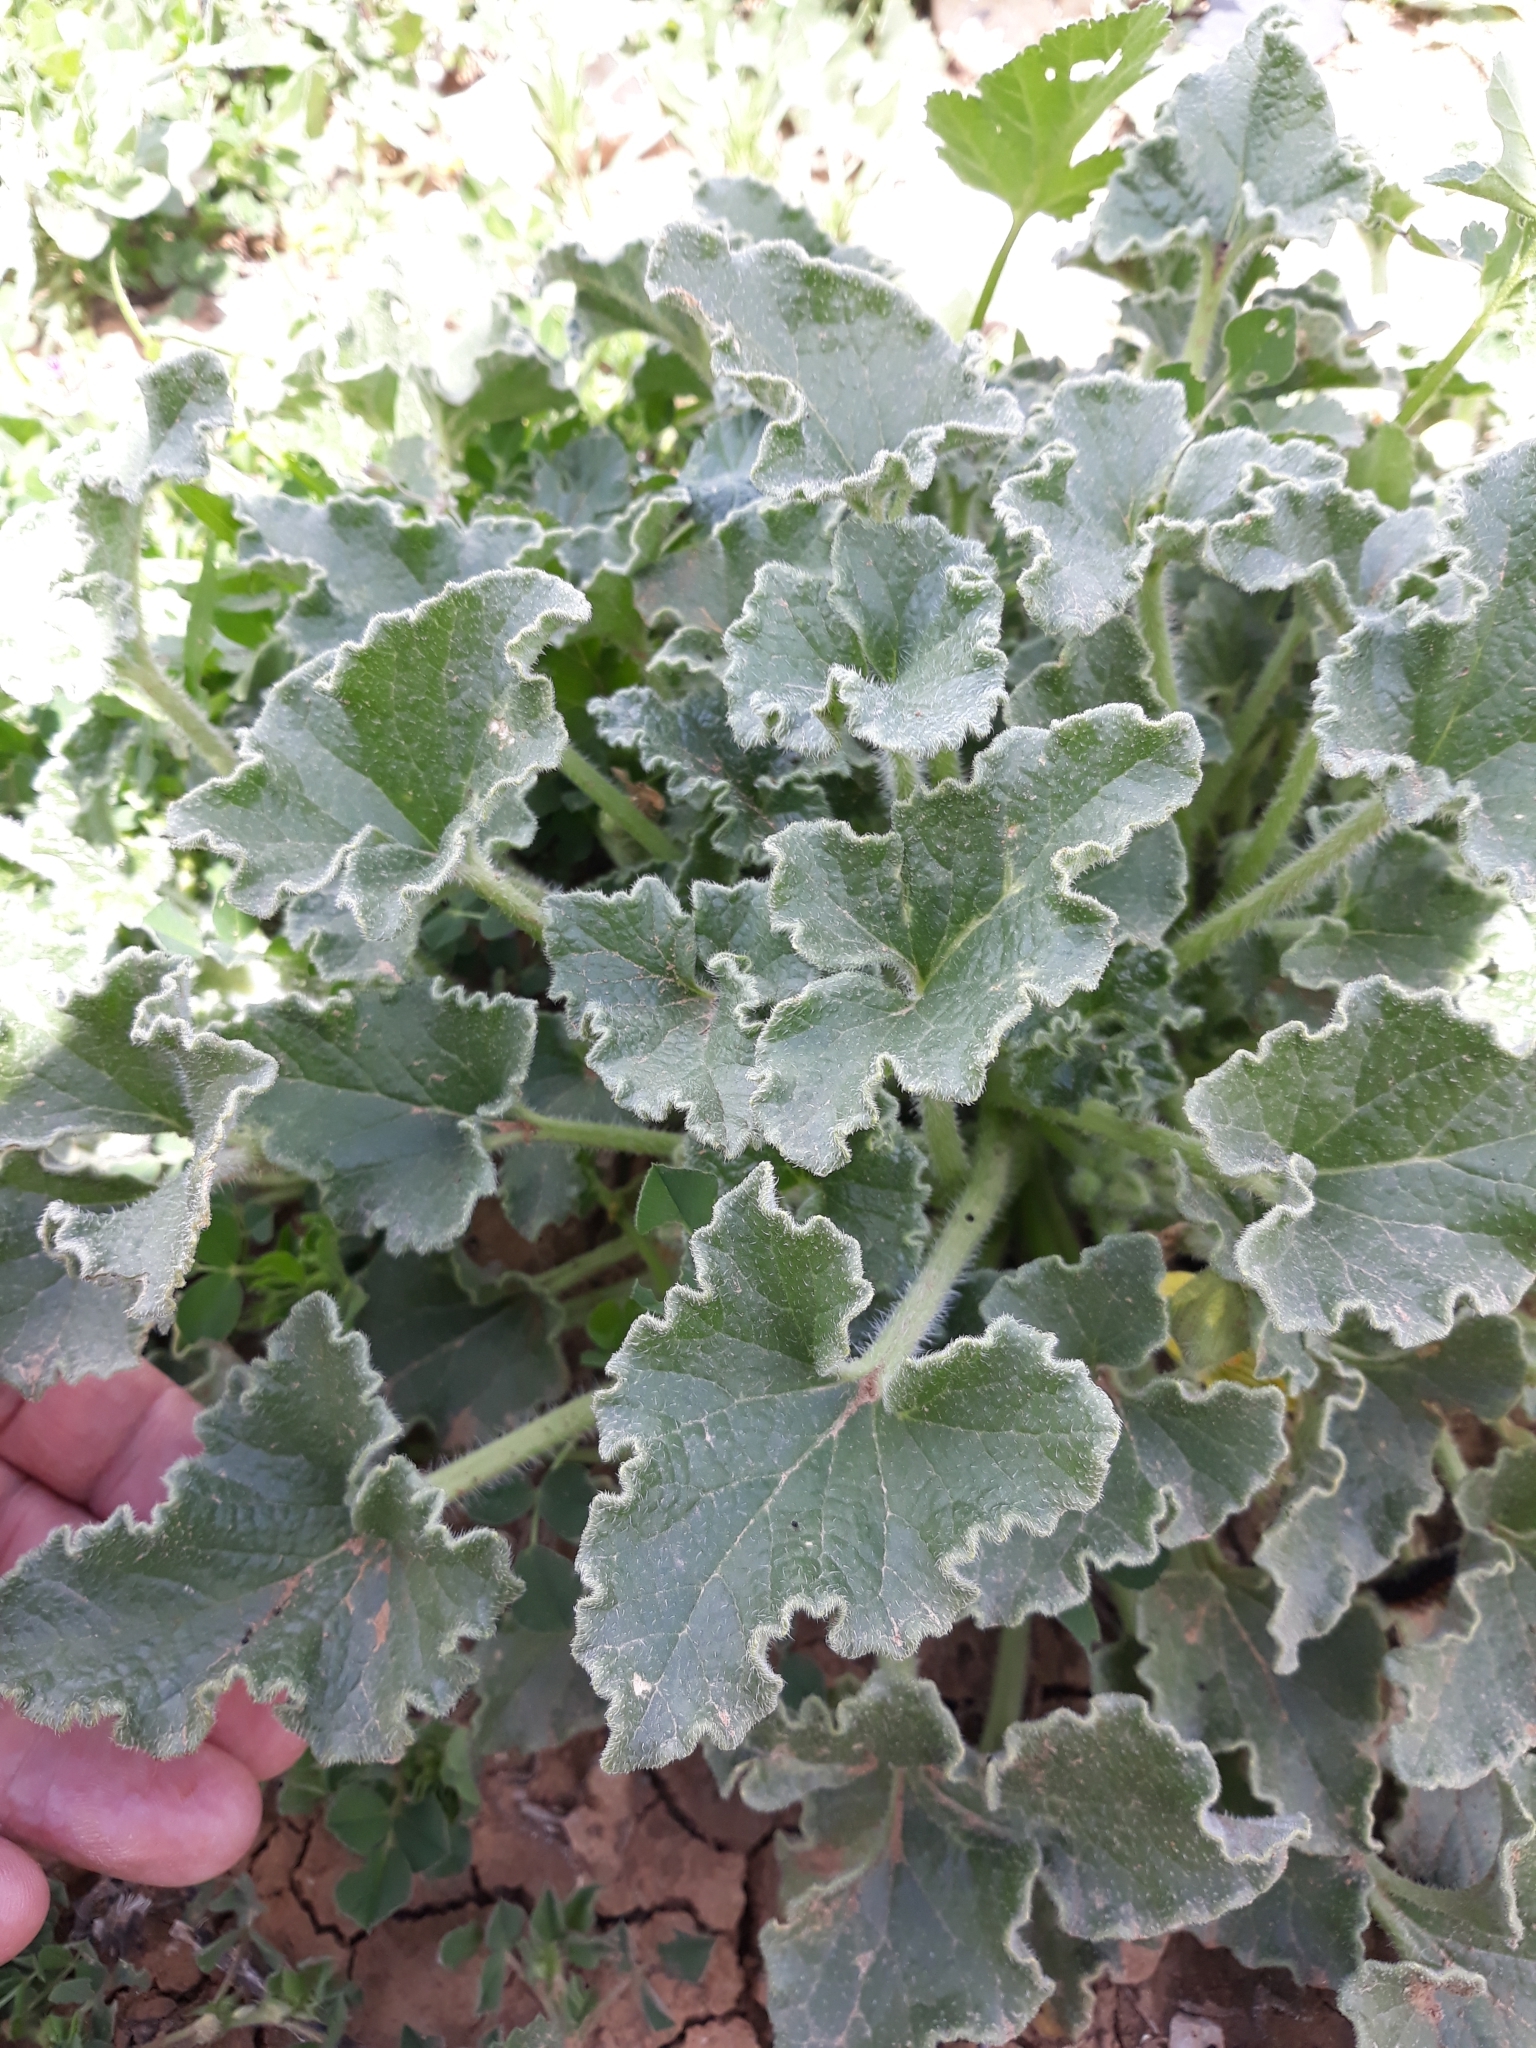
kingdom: Plantae
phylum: Tracheophyta
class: Magnoliopsida
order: Cucurbitales
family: Cucurbitaceae
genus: Ecballium
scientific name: Ecballium elaterium
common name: Squirting cucumber
